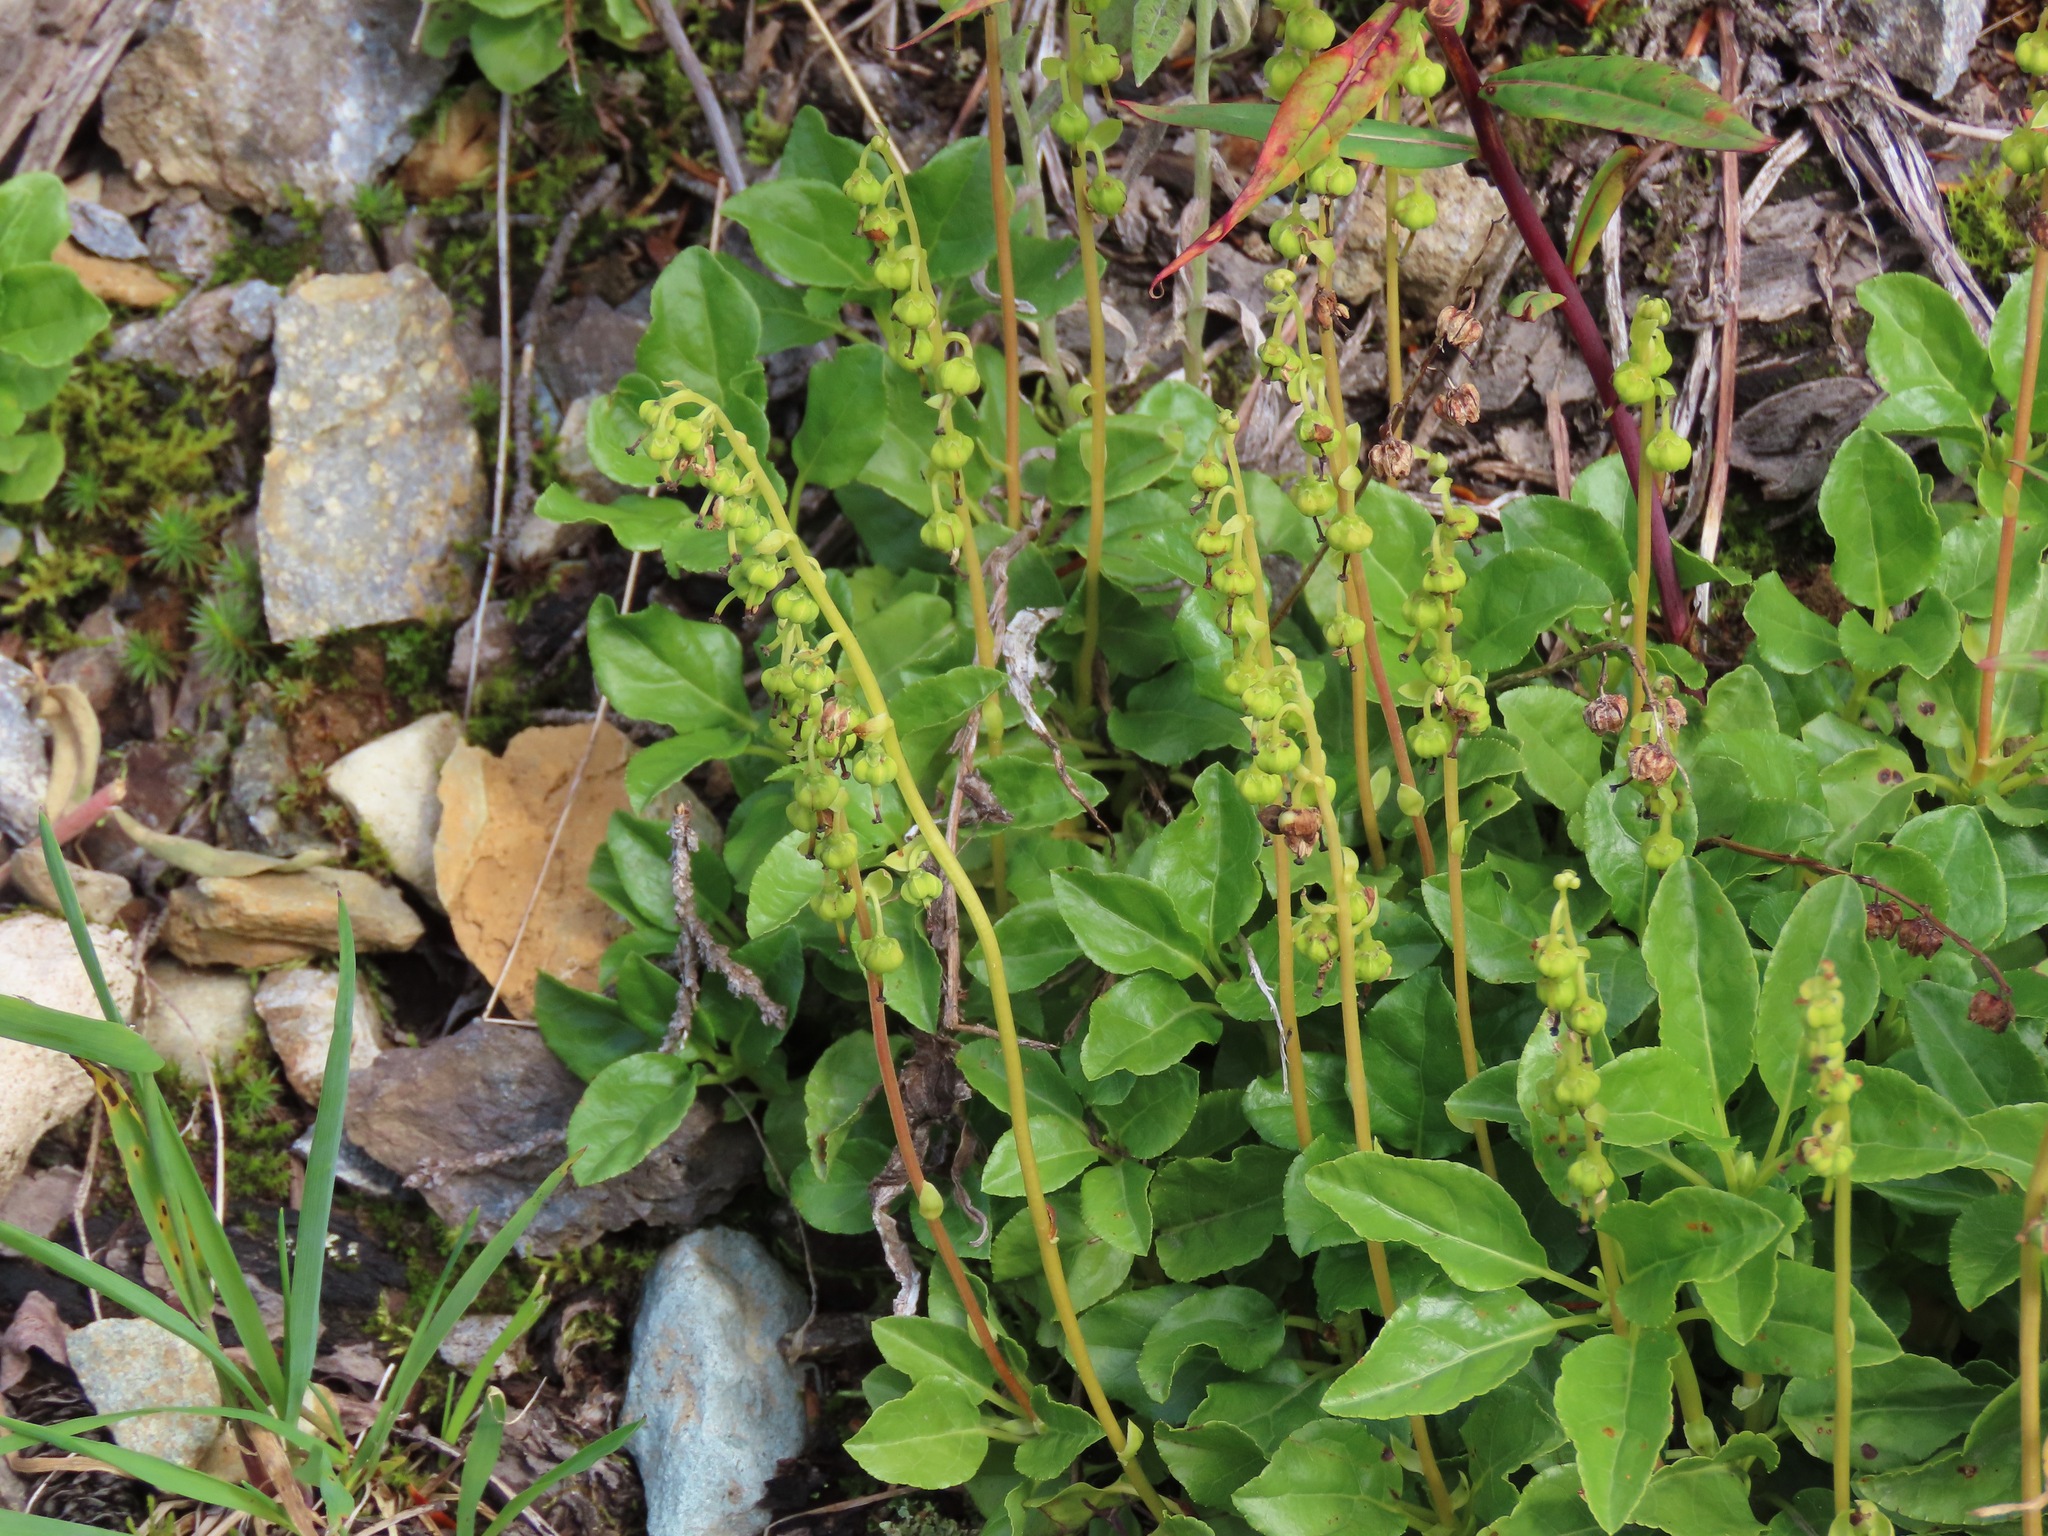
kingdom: Plantae
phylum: Tracheophyta
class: Magnoliopsida
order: Ericales
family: Ericaceae
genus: Orthilia
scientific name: Orthilia secunda
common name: One-sided orthilia
